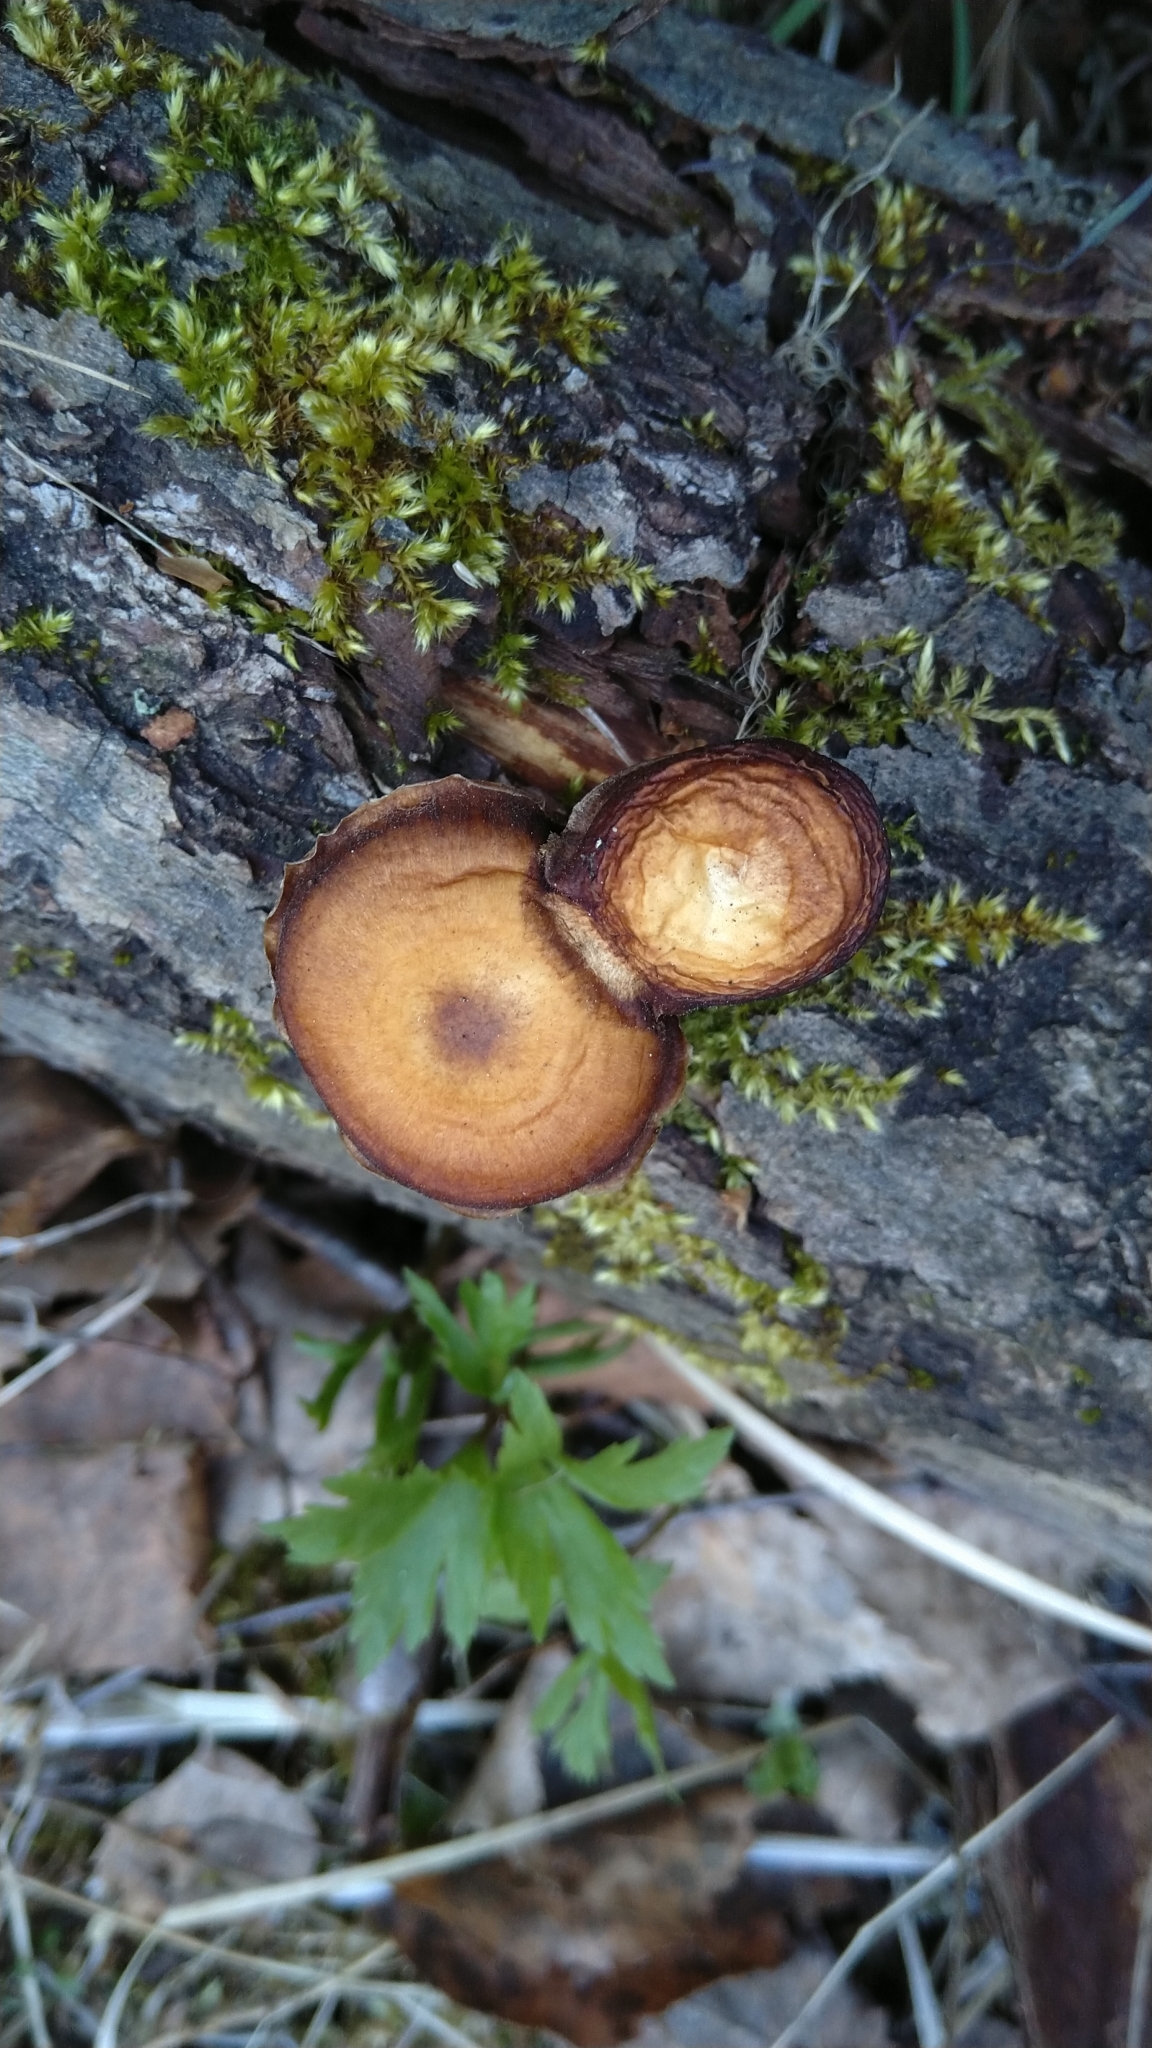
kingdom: Fungi
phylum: Basidiomycota
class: Agaricomycetes
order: Polyporales
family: Polyporaceae
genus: Lentinus
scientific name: Lentinus brumalis
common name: Winter polypore
